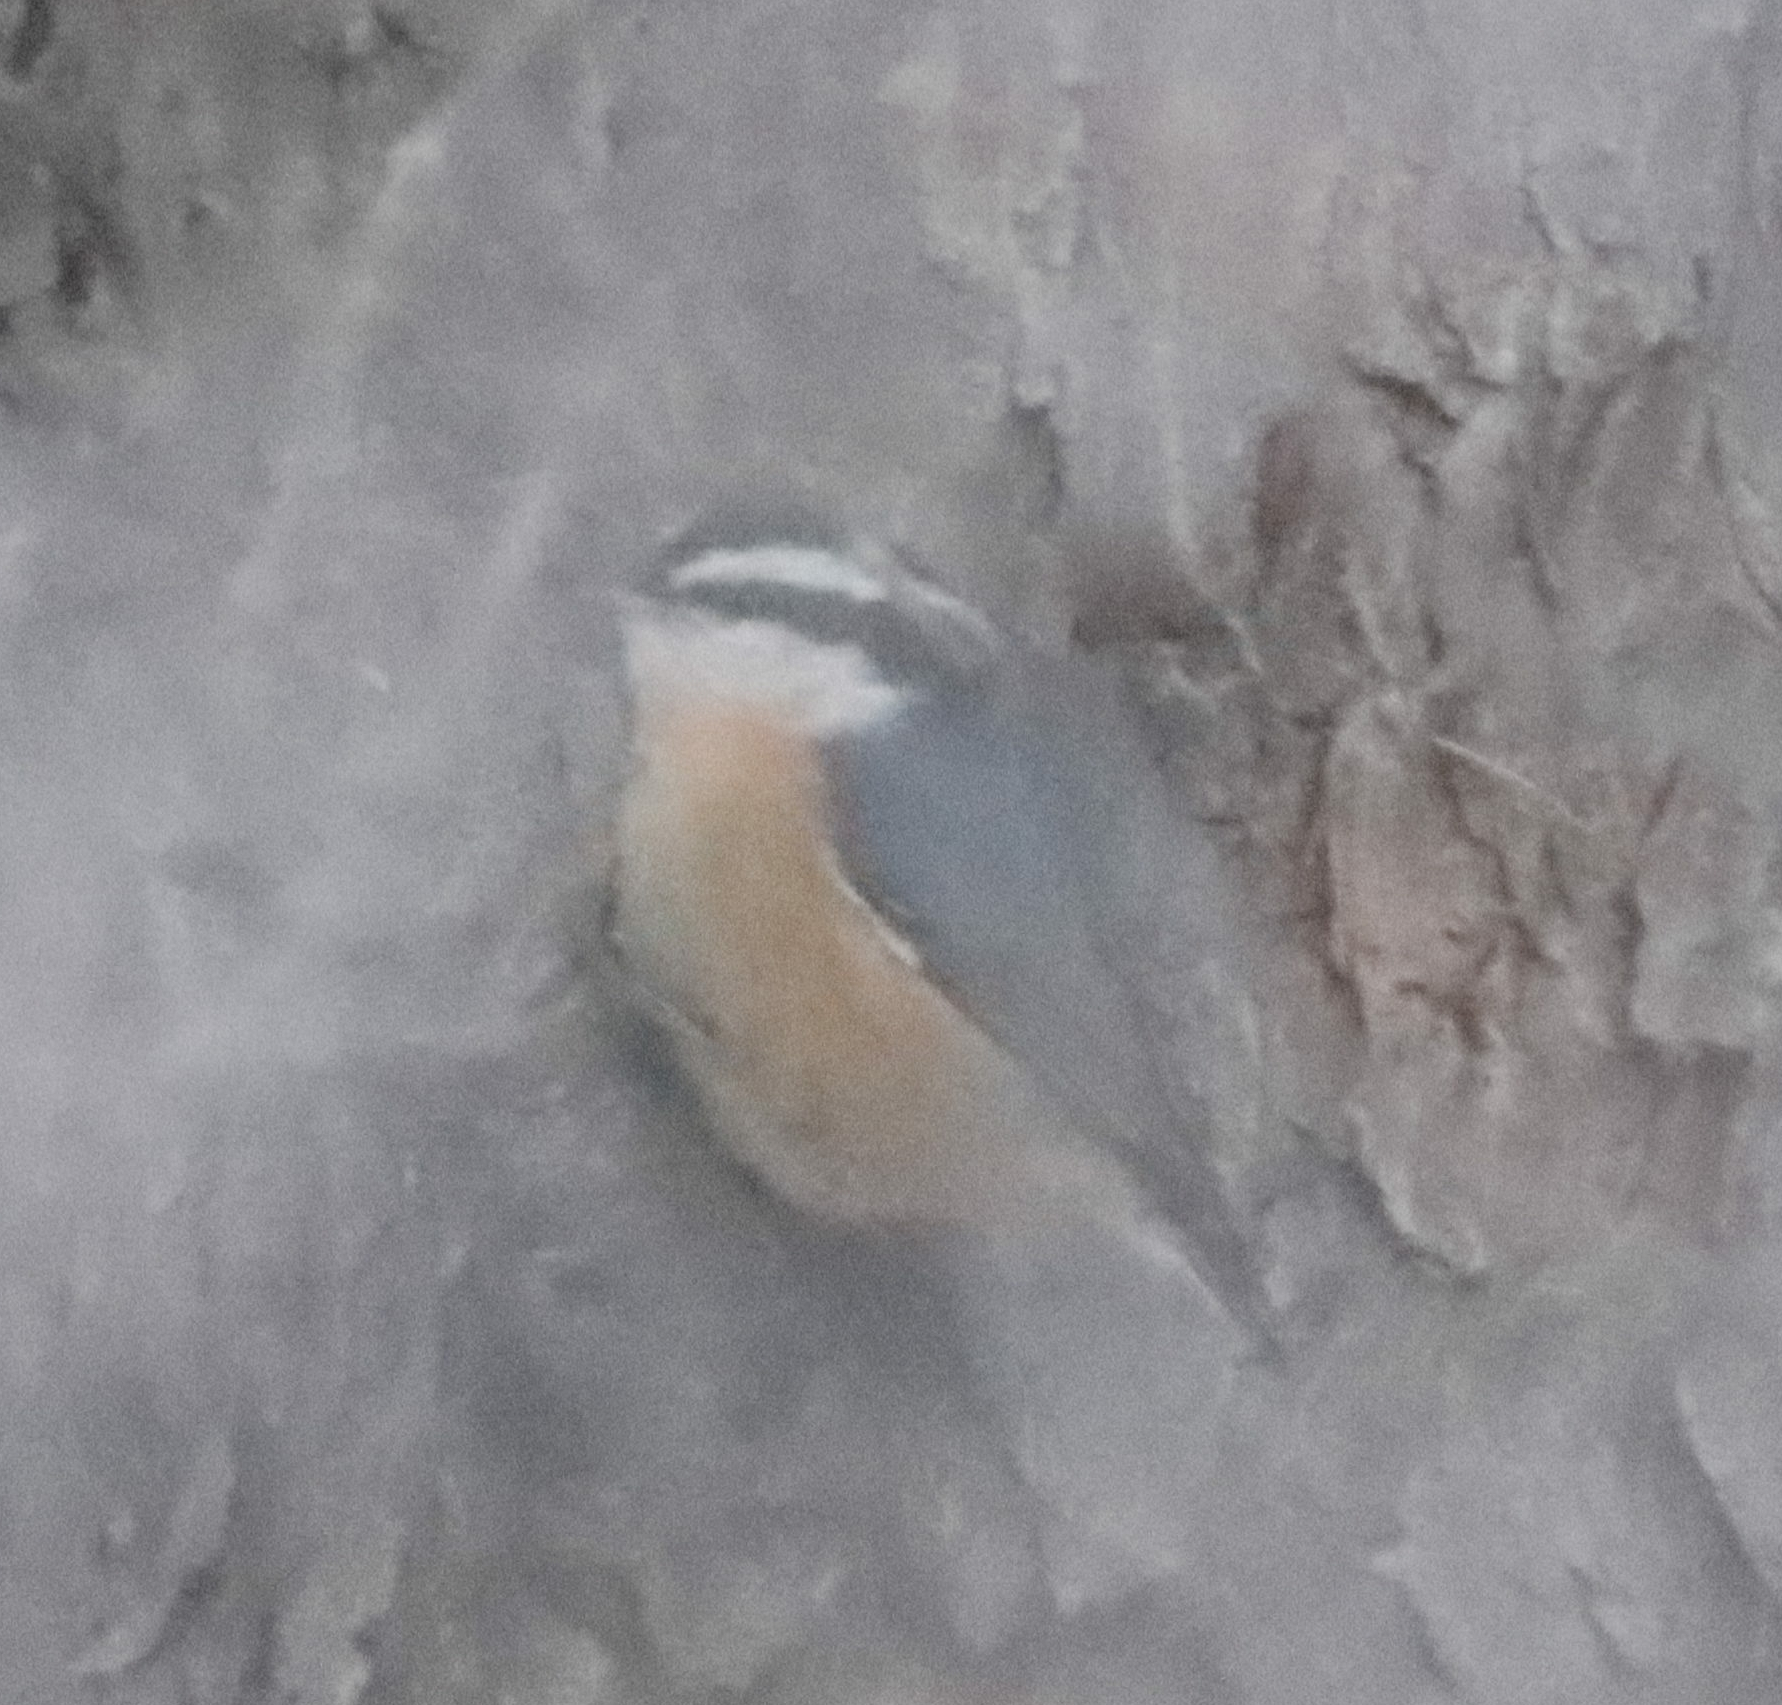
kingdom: Animalia
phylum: Chordata
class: Aves
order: Passeriformes
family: Sittidae
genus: Sitta
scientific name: Sitta canadensis
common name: Red-breasted nuthatch
